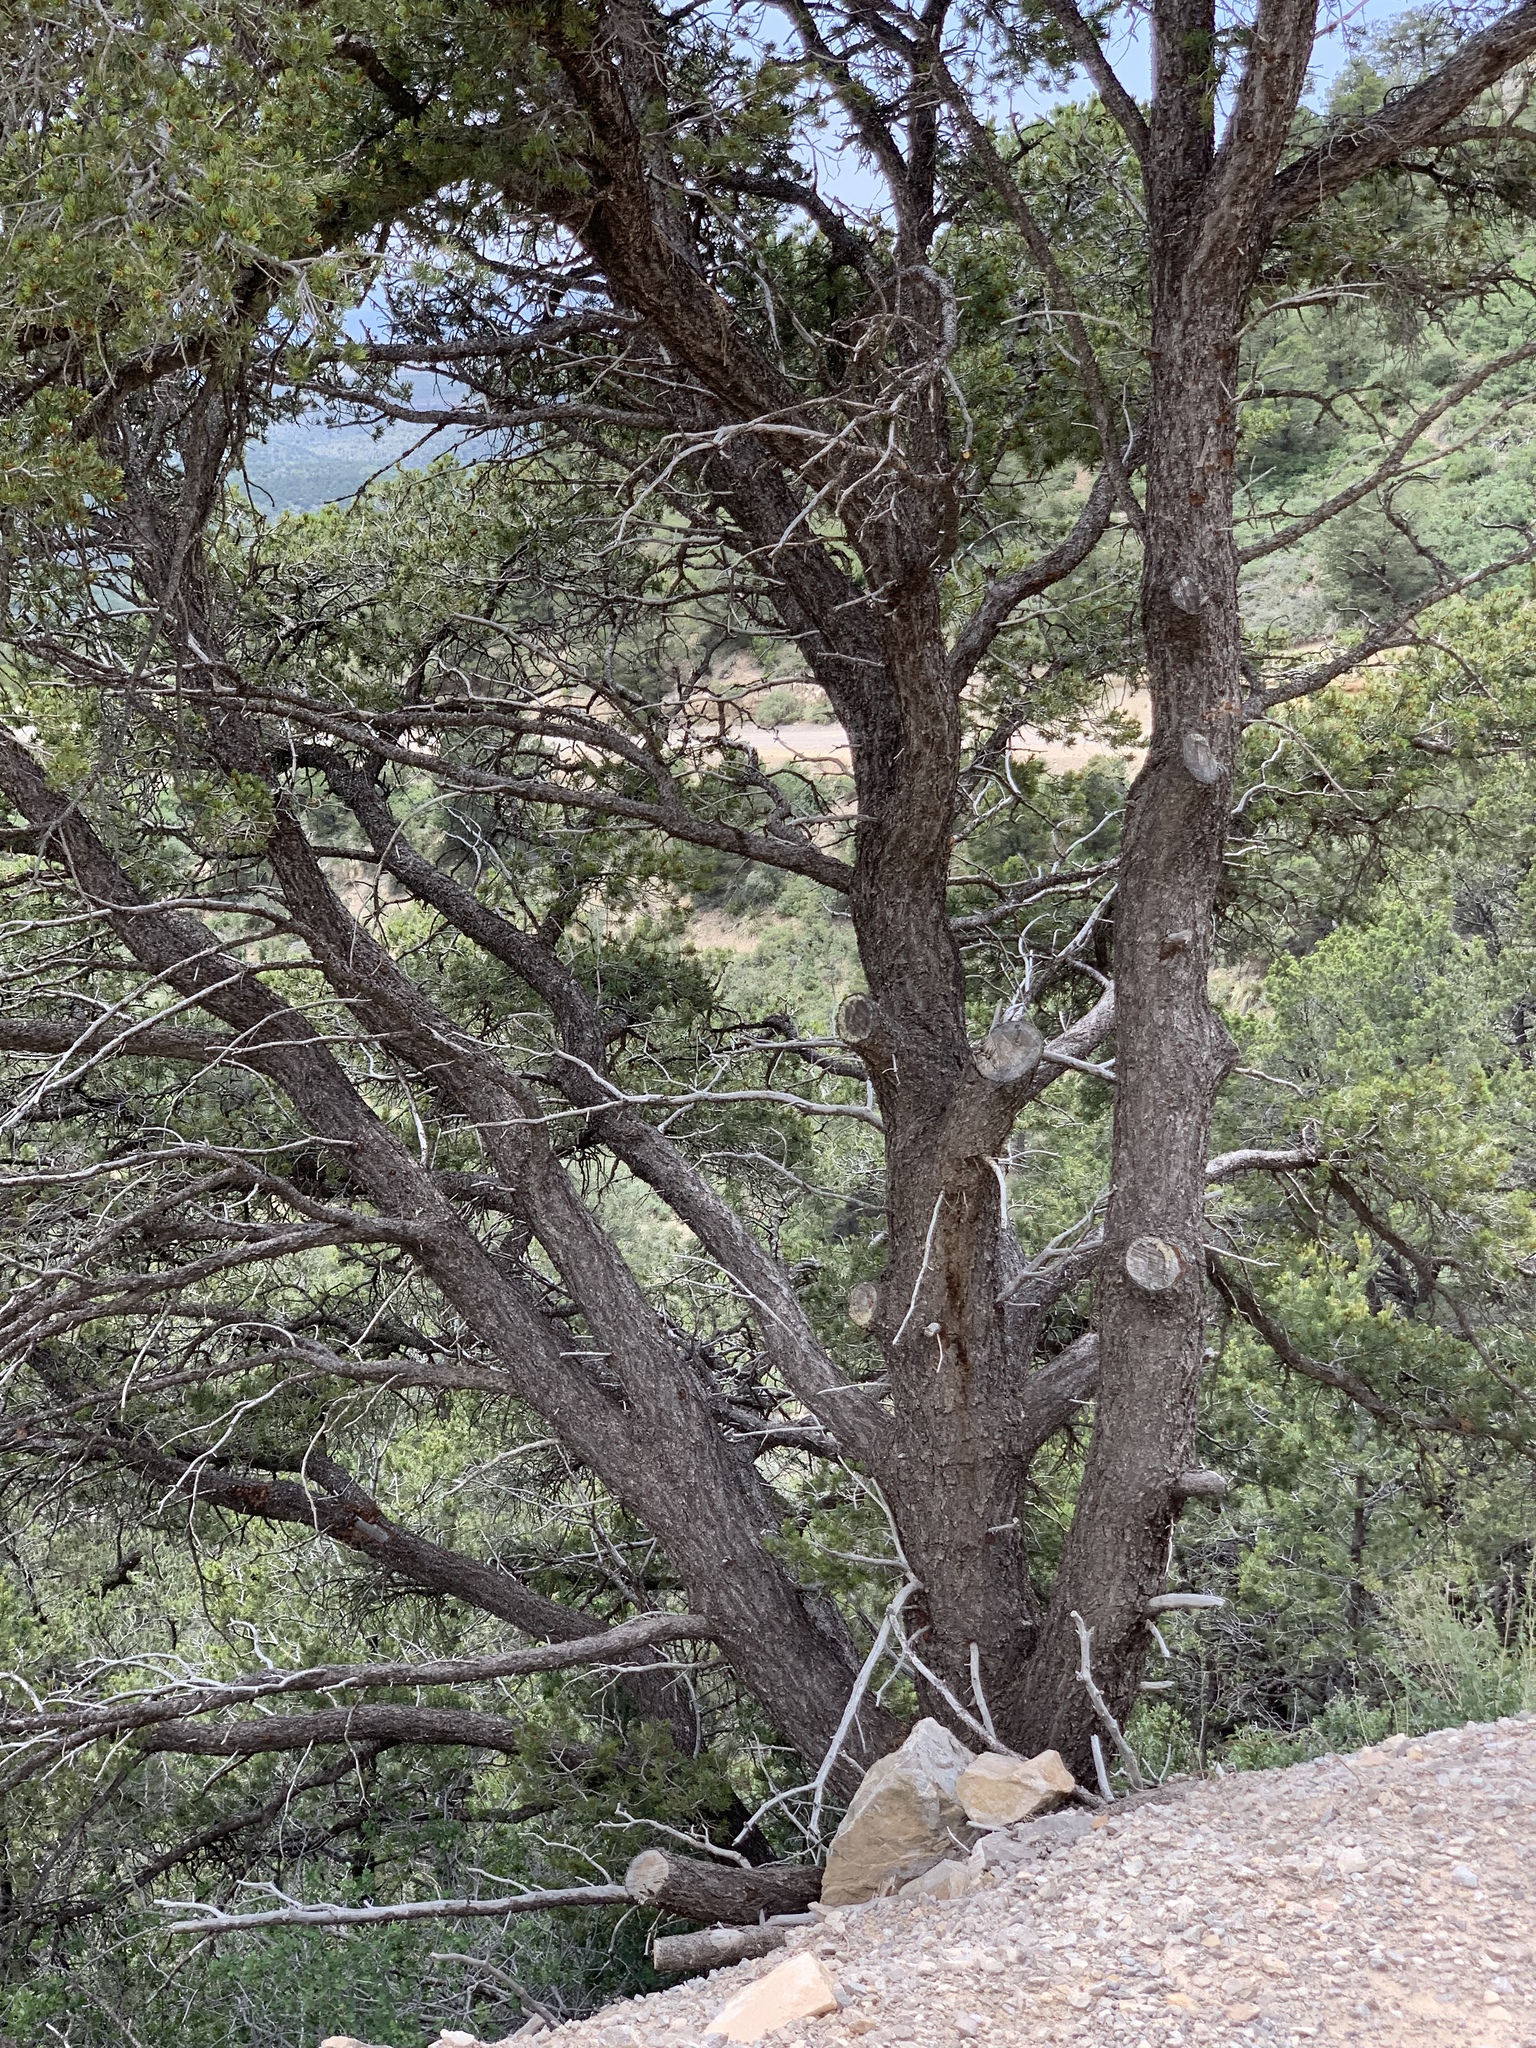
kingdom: Plantae
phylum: Tracheophyta
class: Pinopsida
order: Pinales
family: Pinaceae
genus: Pinus
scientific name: Pinus edulis
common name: Colorado pinyon
